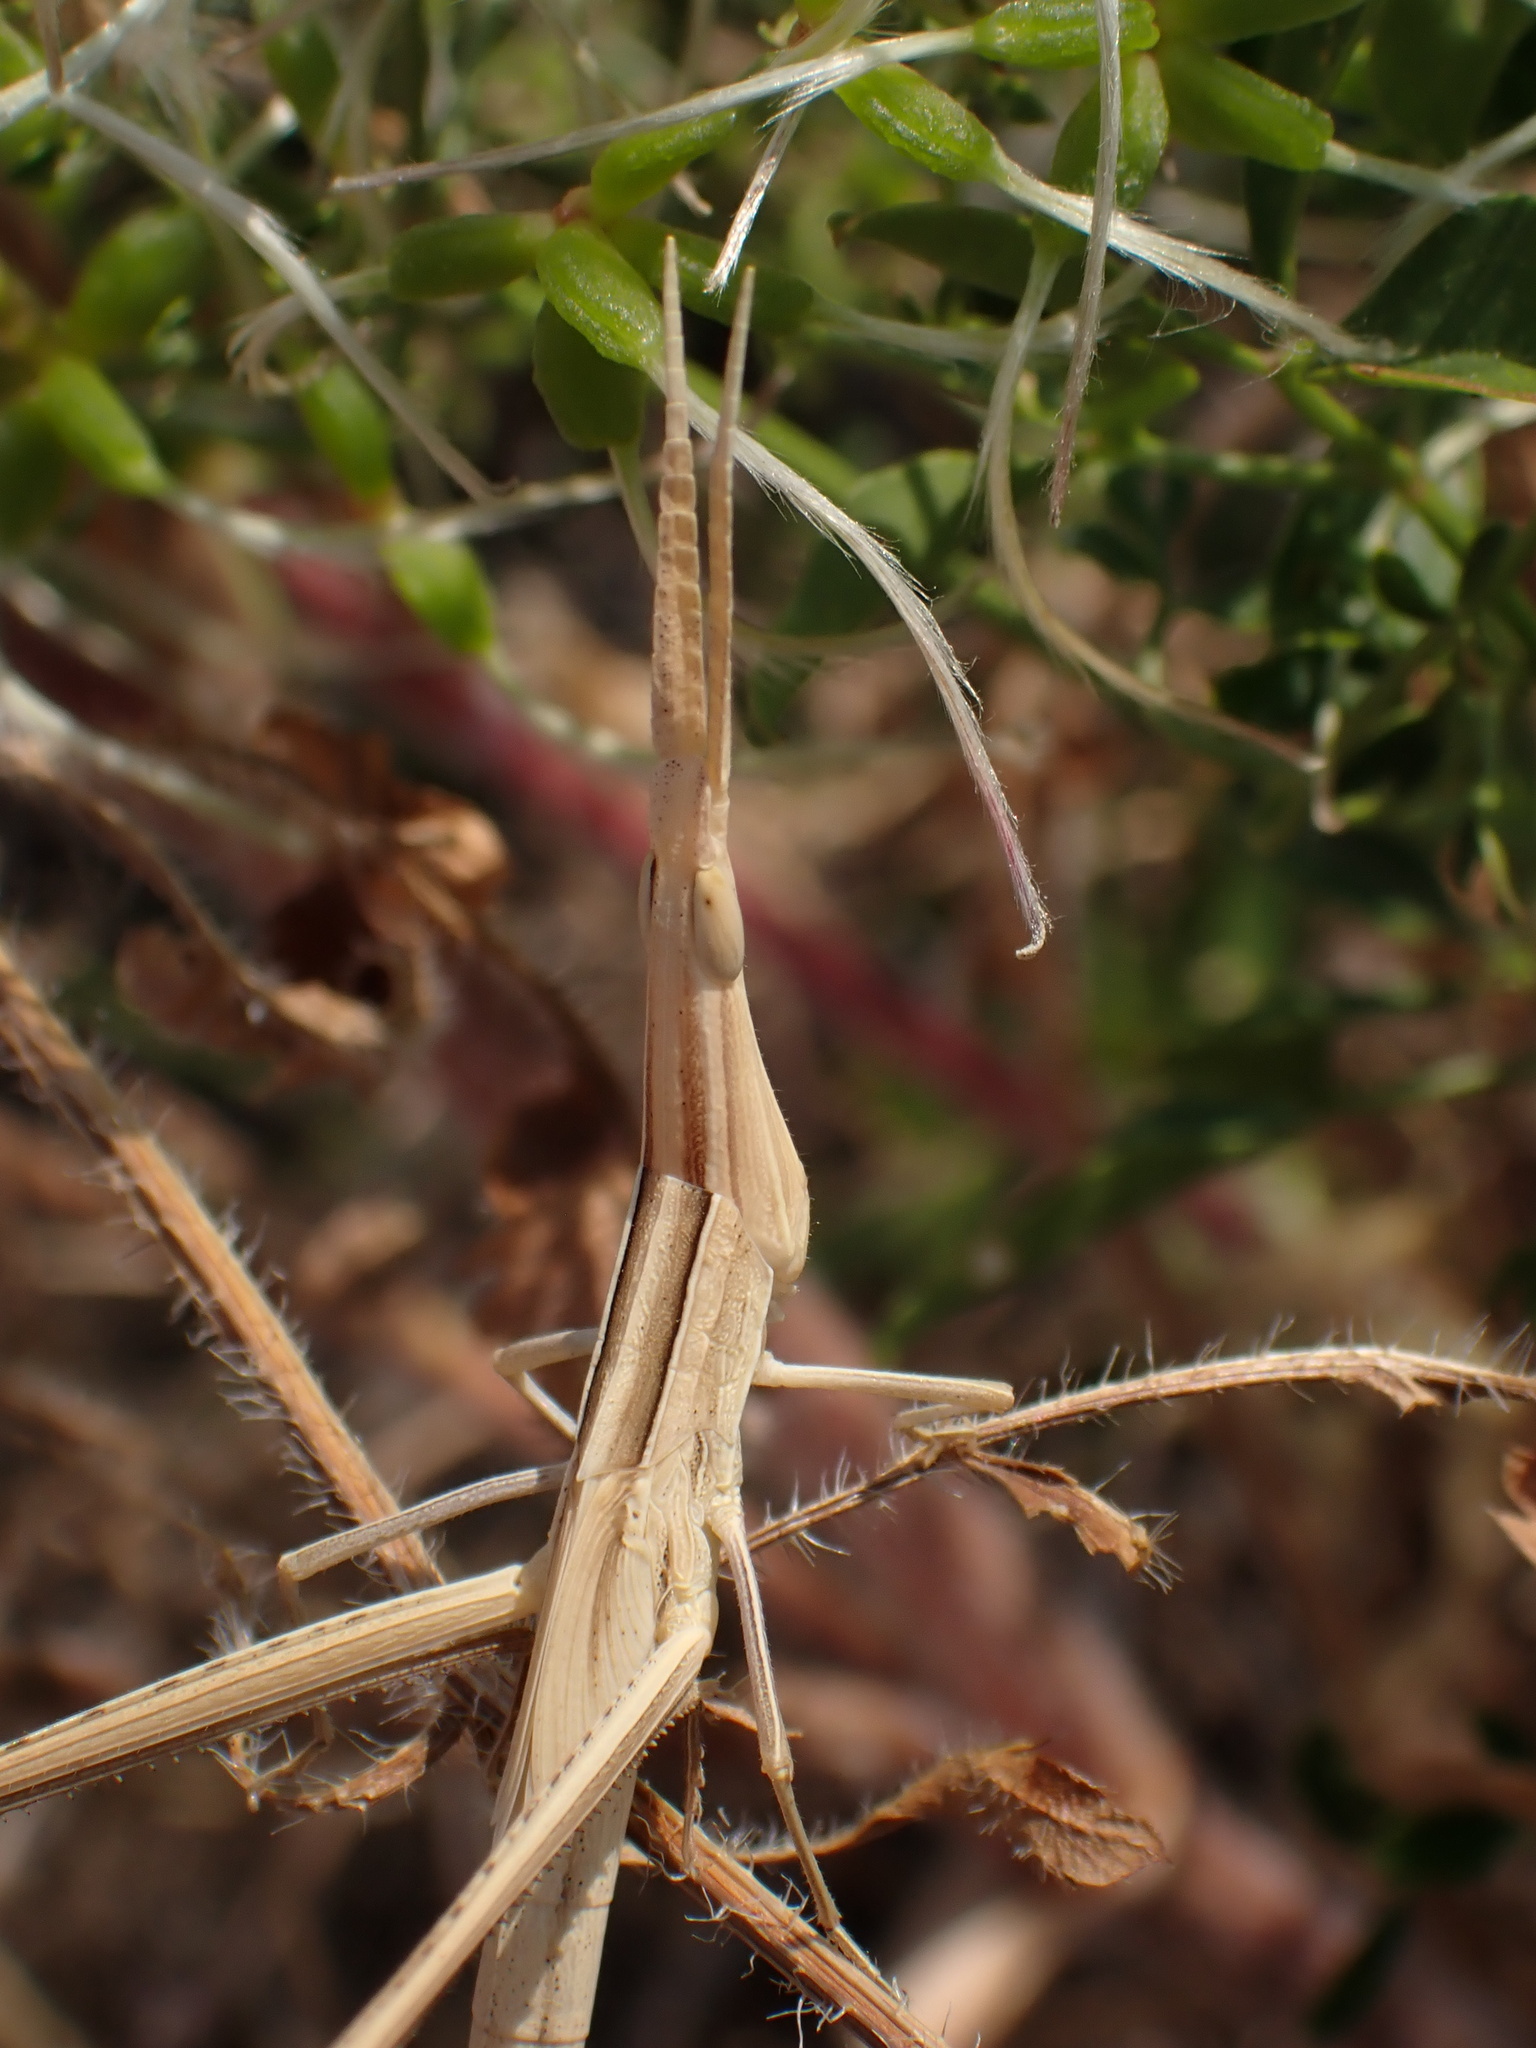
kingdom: Animalia
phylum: Arthropoda
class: Insecta
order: Orthoptera
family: Acrididae
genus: Acrida
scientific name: Acrida ungarica
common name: Common cone-headed grasshopper
